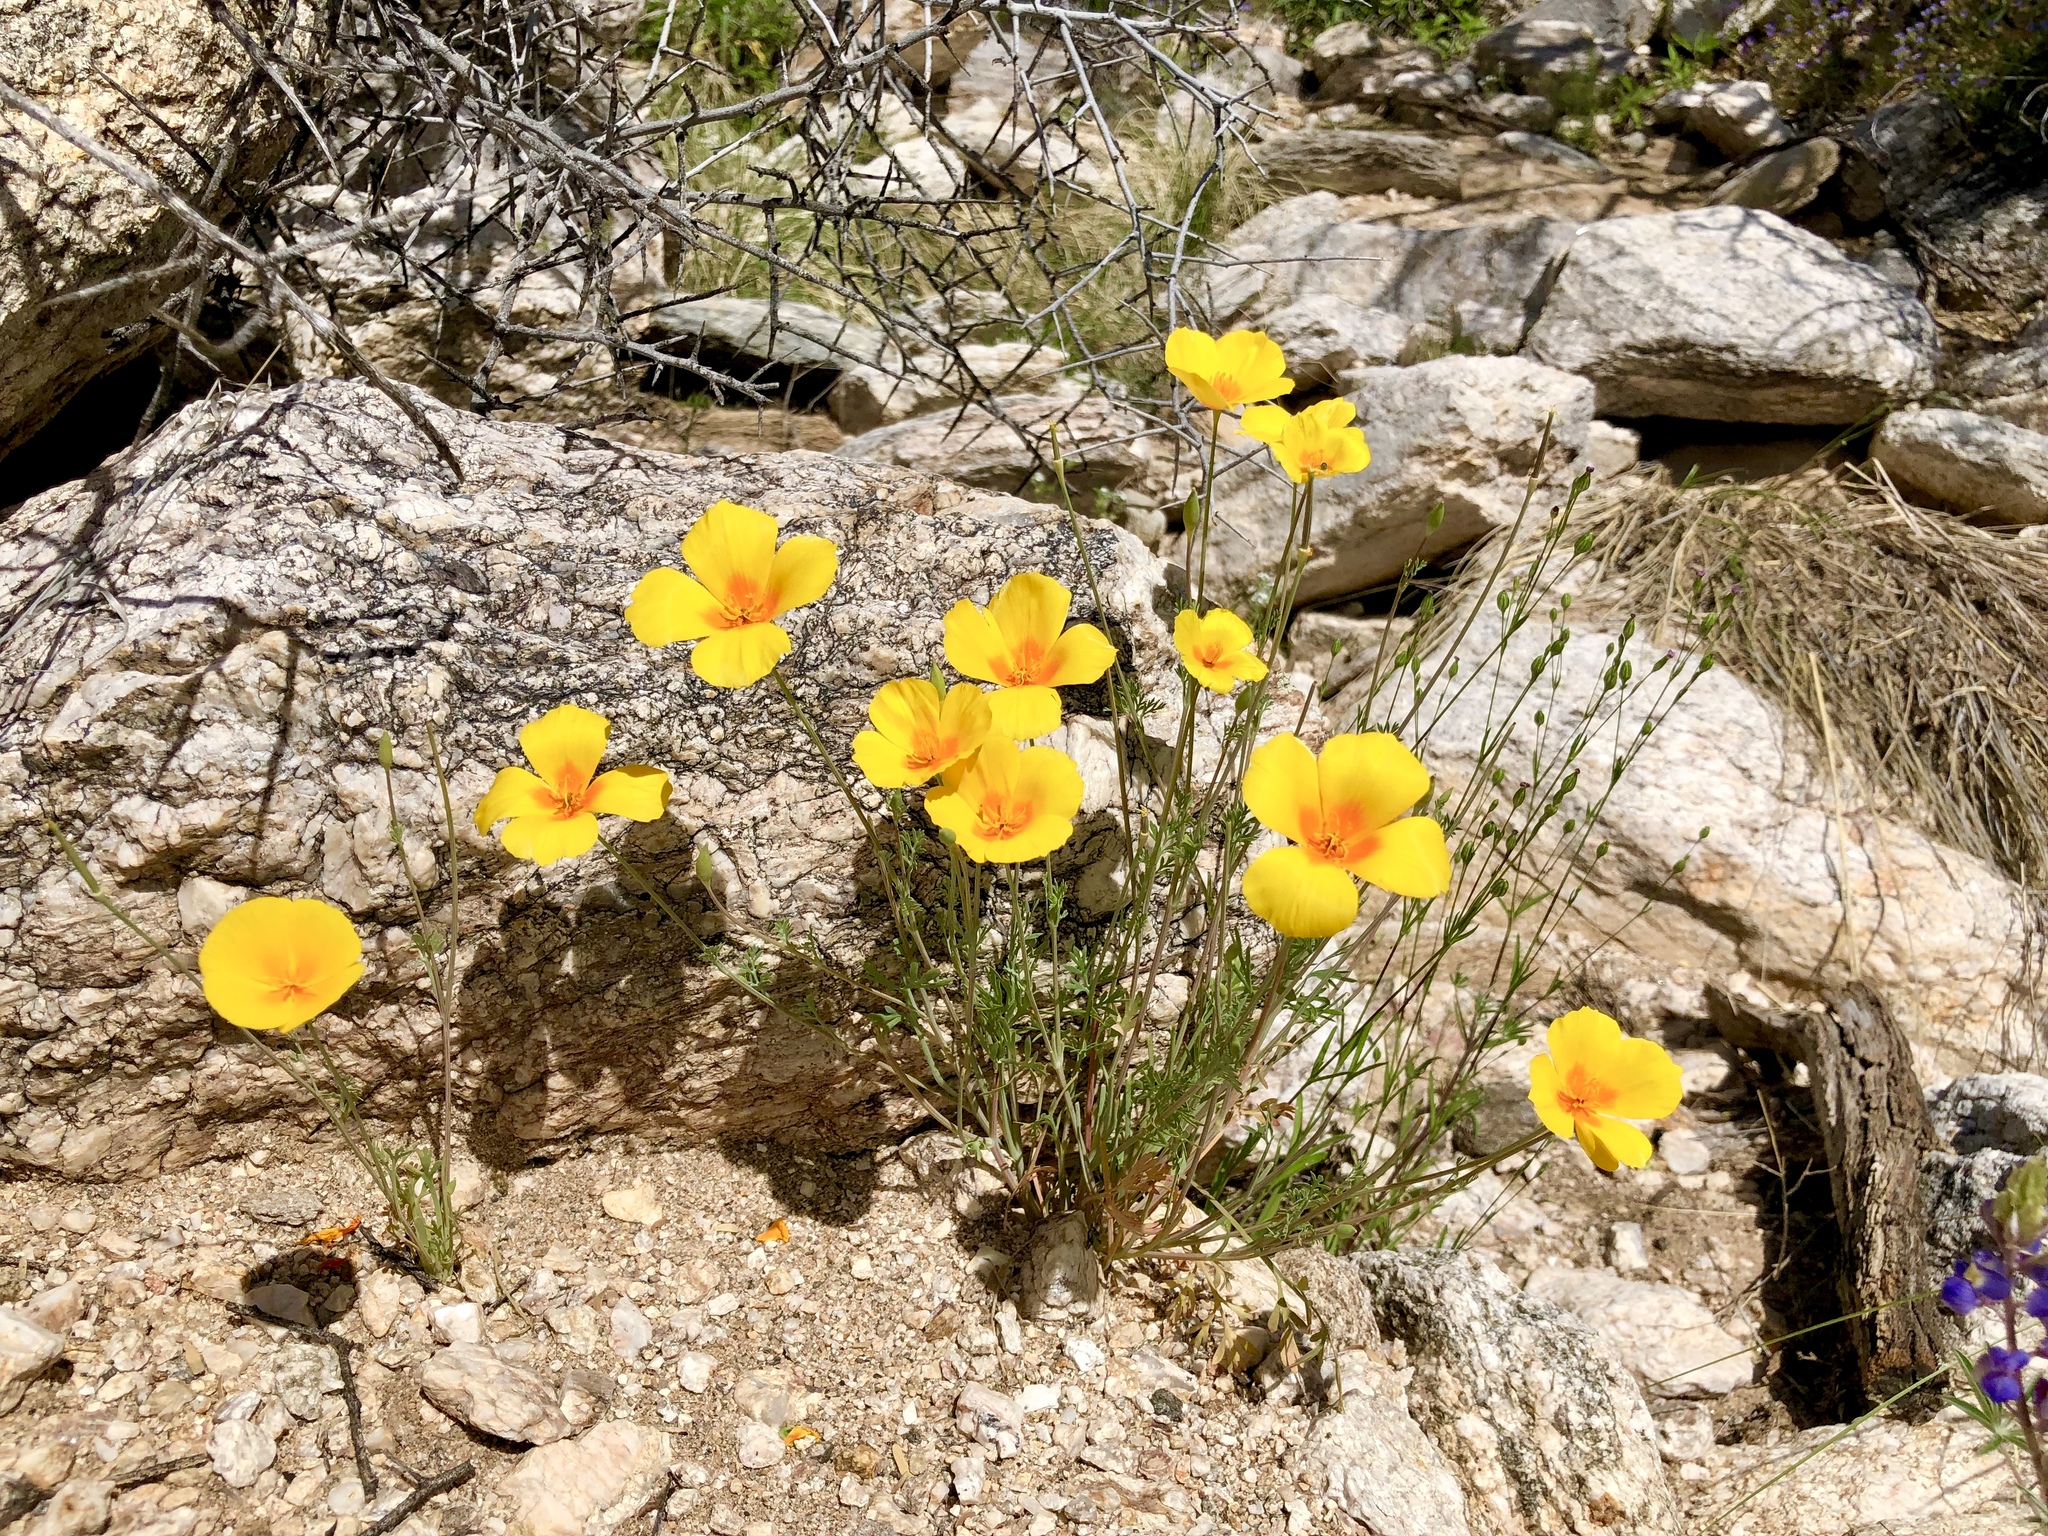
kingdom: Plantae
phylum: Tracheophyta
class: Magnoliopsida
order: Ranunculales
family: Papaveraceae
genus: Eschscholzia
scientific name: Eschscholzia californica
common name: California poppy
